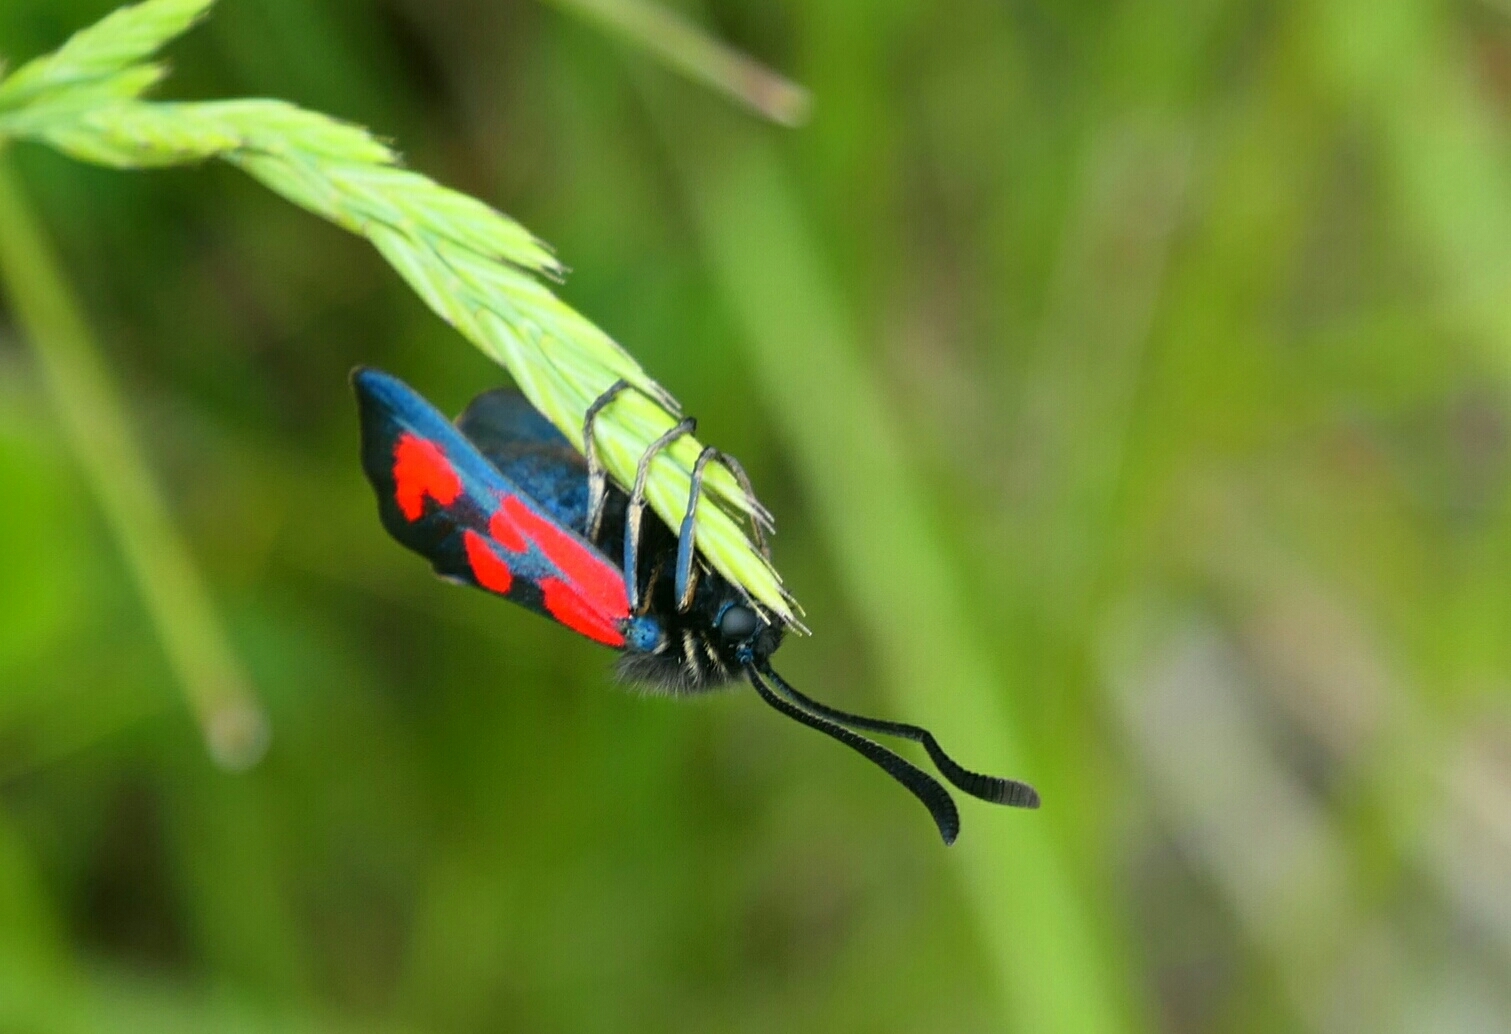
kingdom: Animalia
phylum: Arthropoda
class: Insecta
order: Lepidoptera
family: Zygaenidae
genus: Zygaena
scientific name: Zygaena loti
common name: Slender scotch burnet
